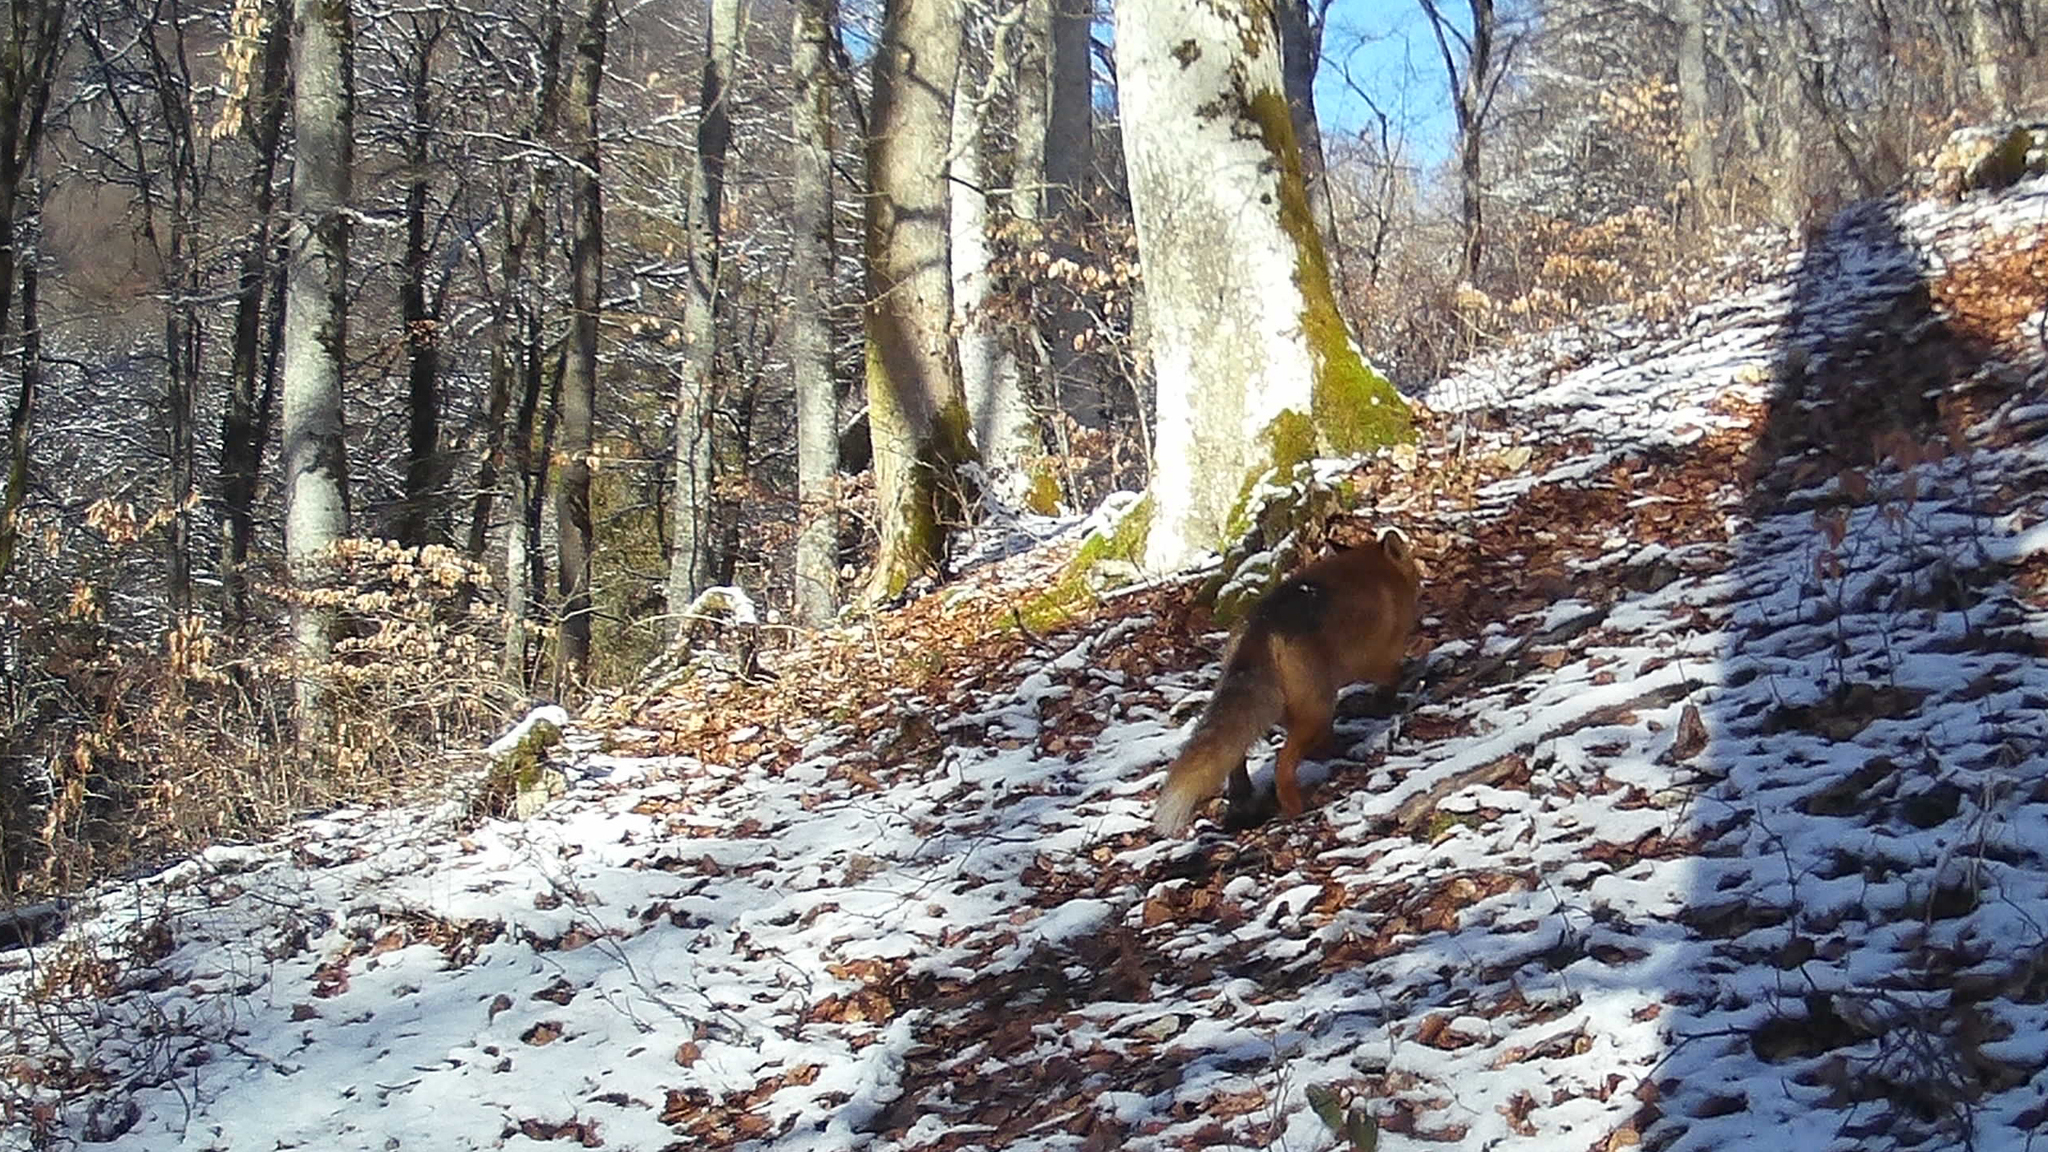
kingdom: Animalia
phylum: Chordata
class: Mammalia
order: Carnivora
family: Canidae
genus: Vulpes
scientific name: Vulpes vulpes
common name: Red fox
